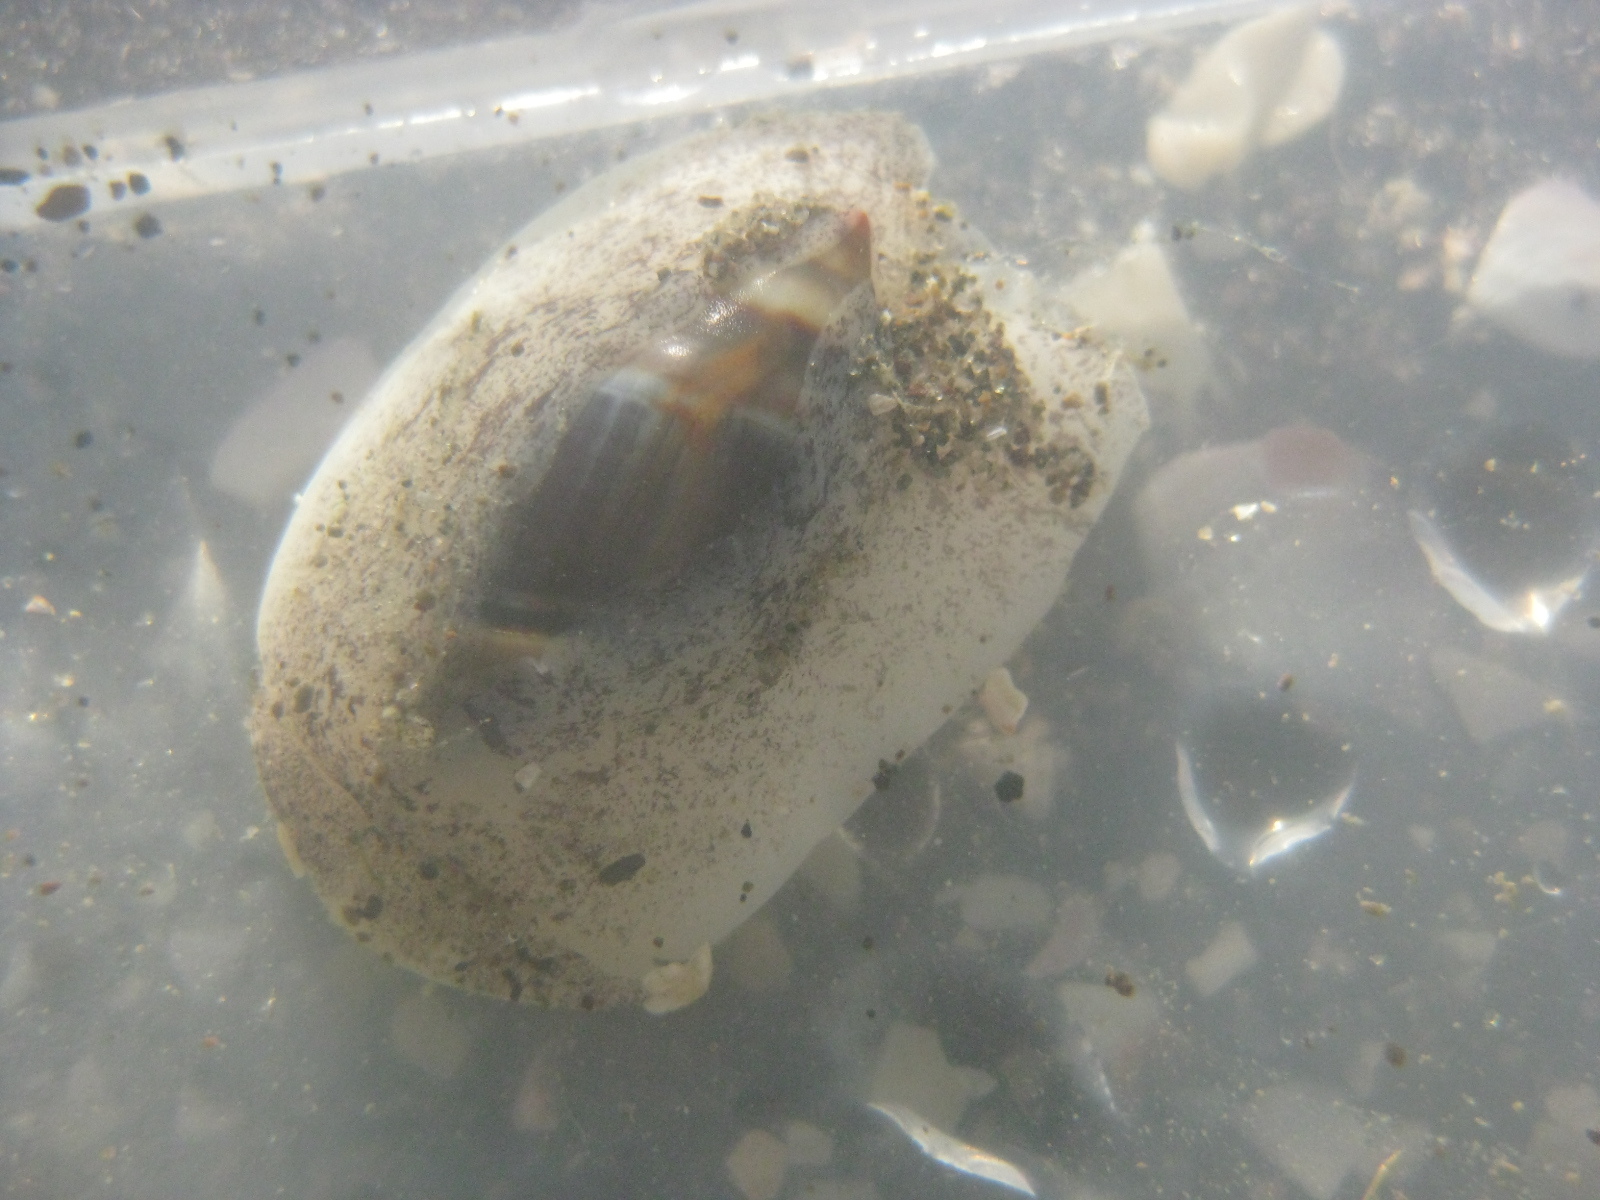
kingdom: Animalia
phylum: Mollusca
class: Gastropoda
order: Neogastropoda
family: Ancillariidae
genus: Amalda
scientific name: Amalda australis
